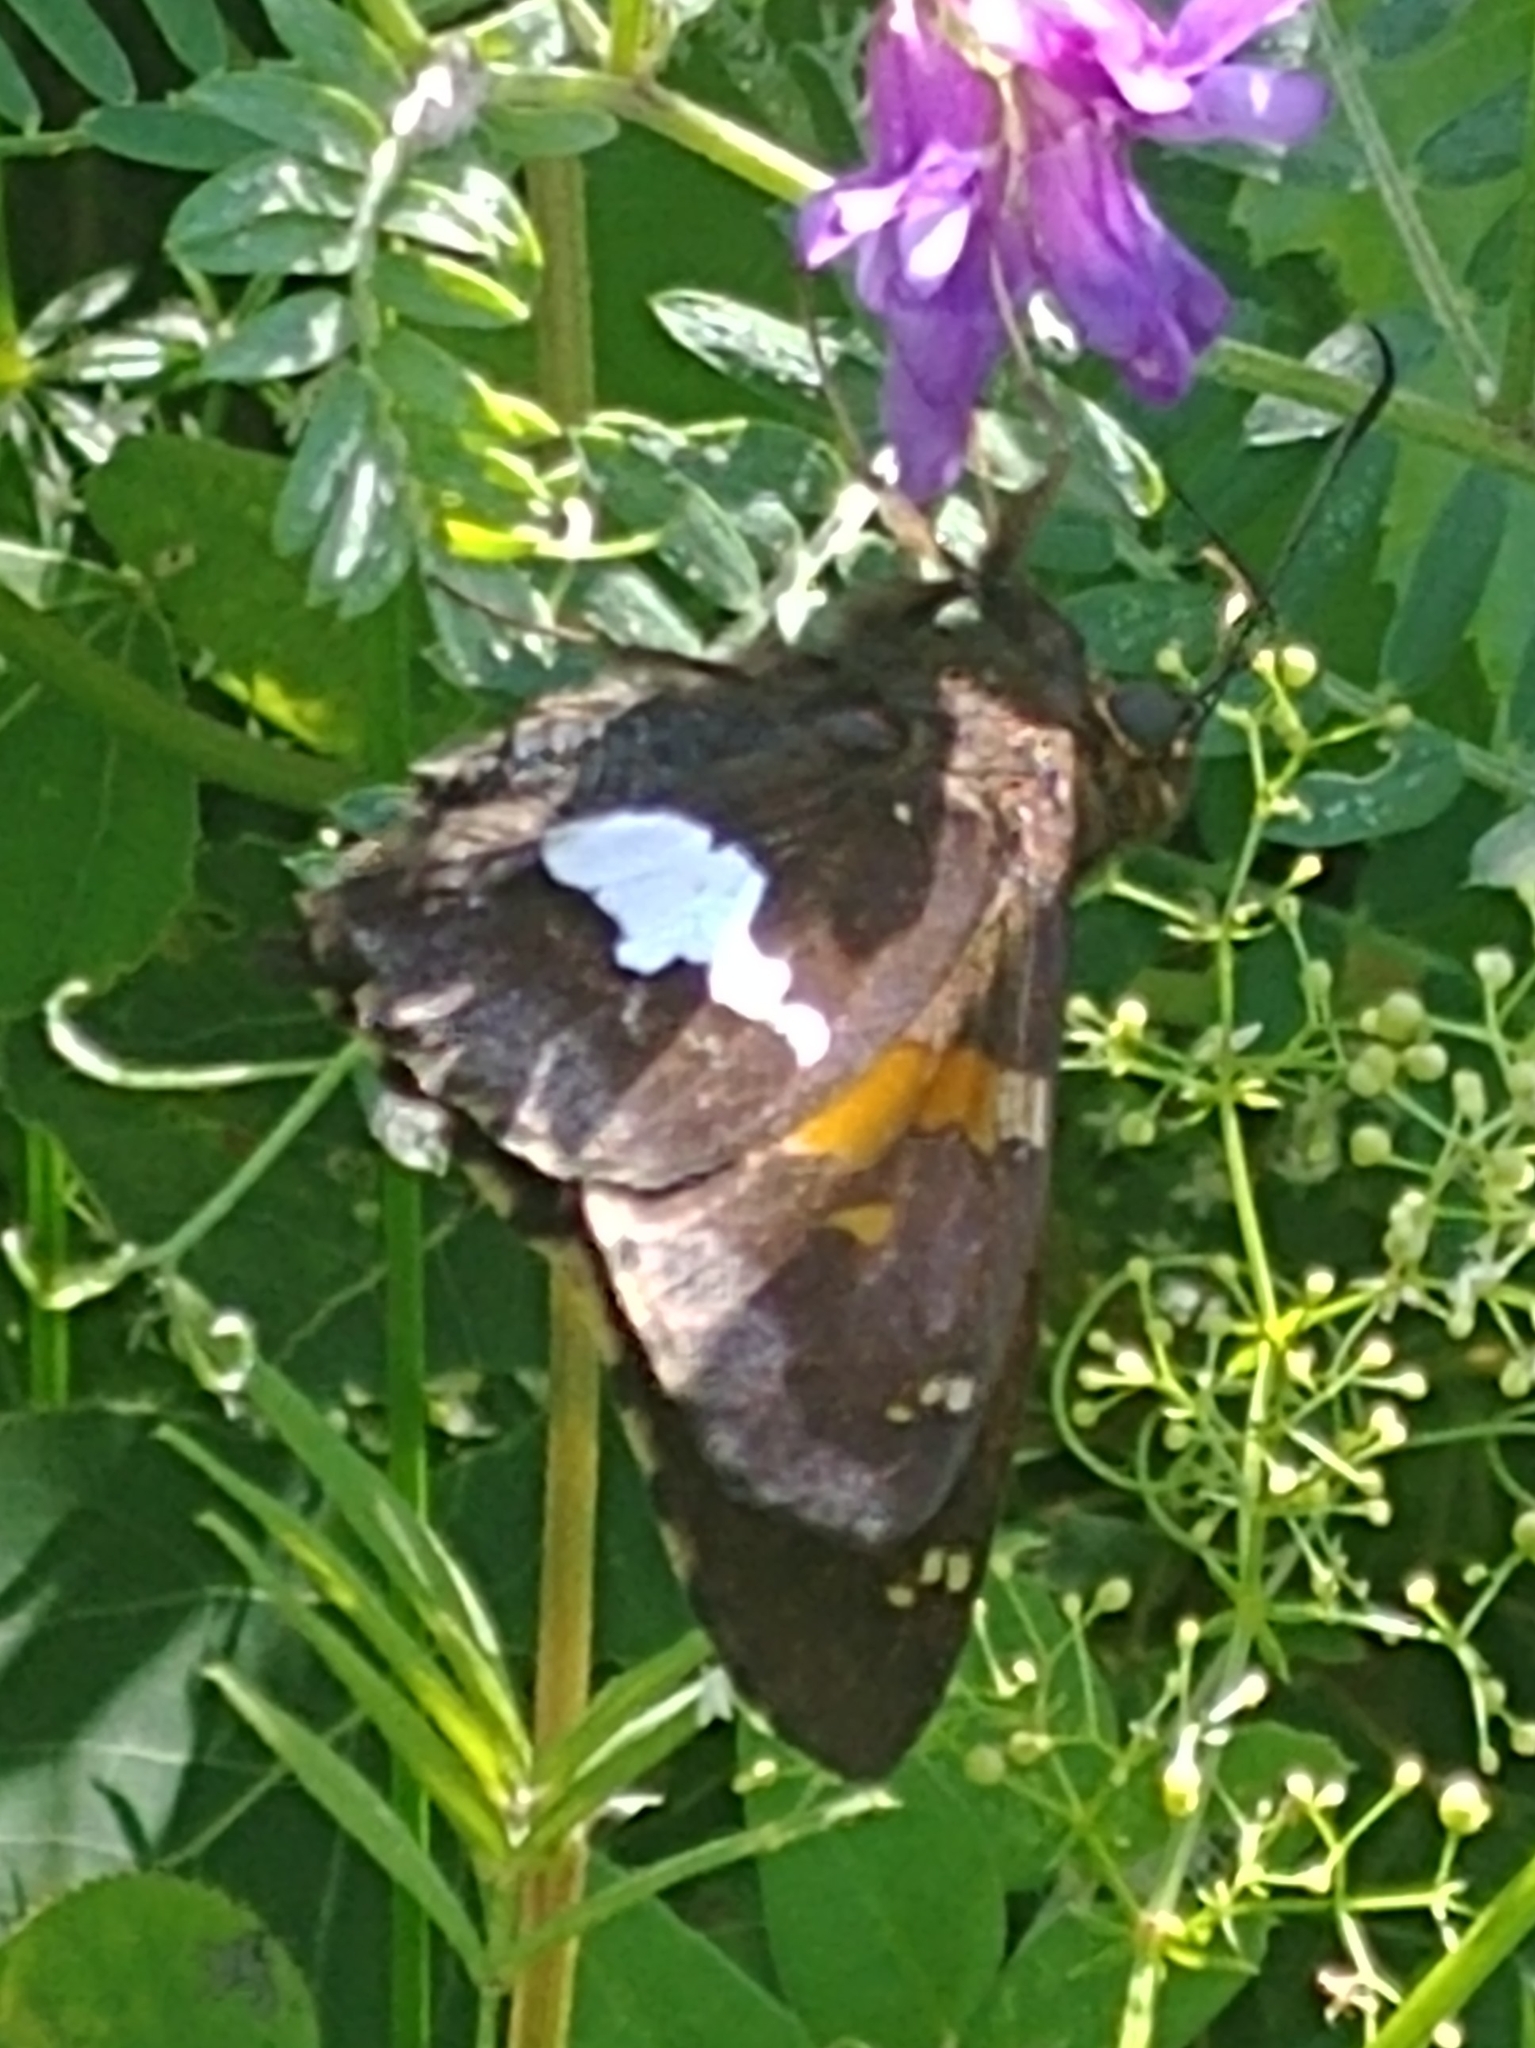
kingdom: Animalia
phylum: Arthropoda
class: Insecta
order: Lepidoptera
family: Hesperiidae
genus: Epargyreus
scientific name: Epargyreus clarus
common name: Silver-spotted skipper
